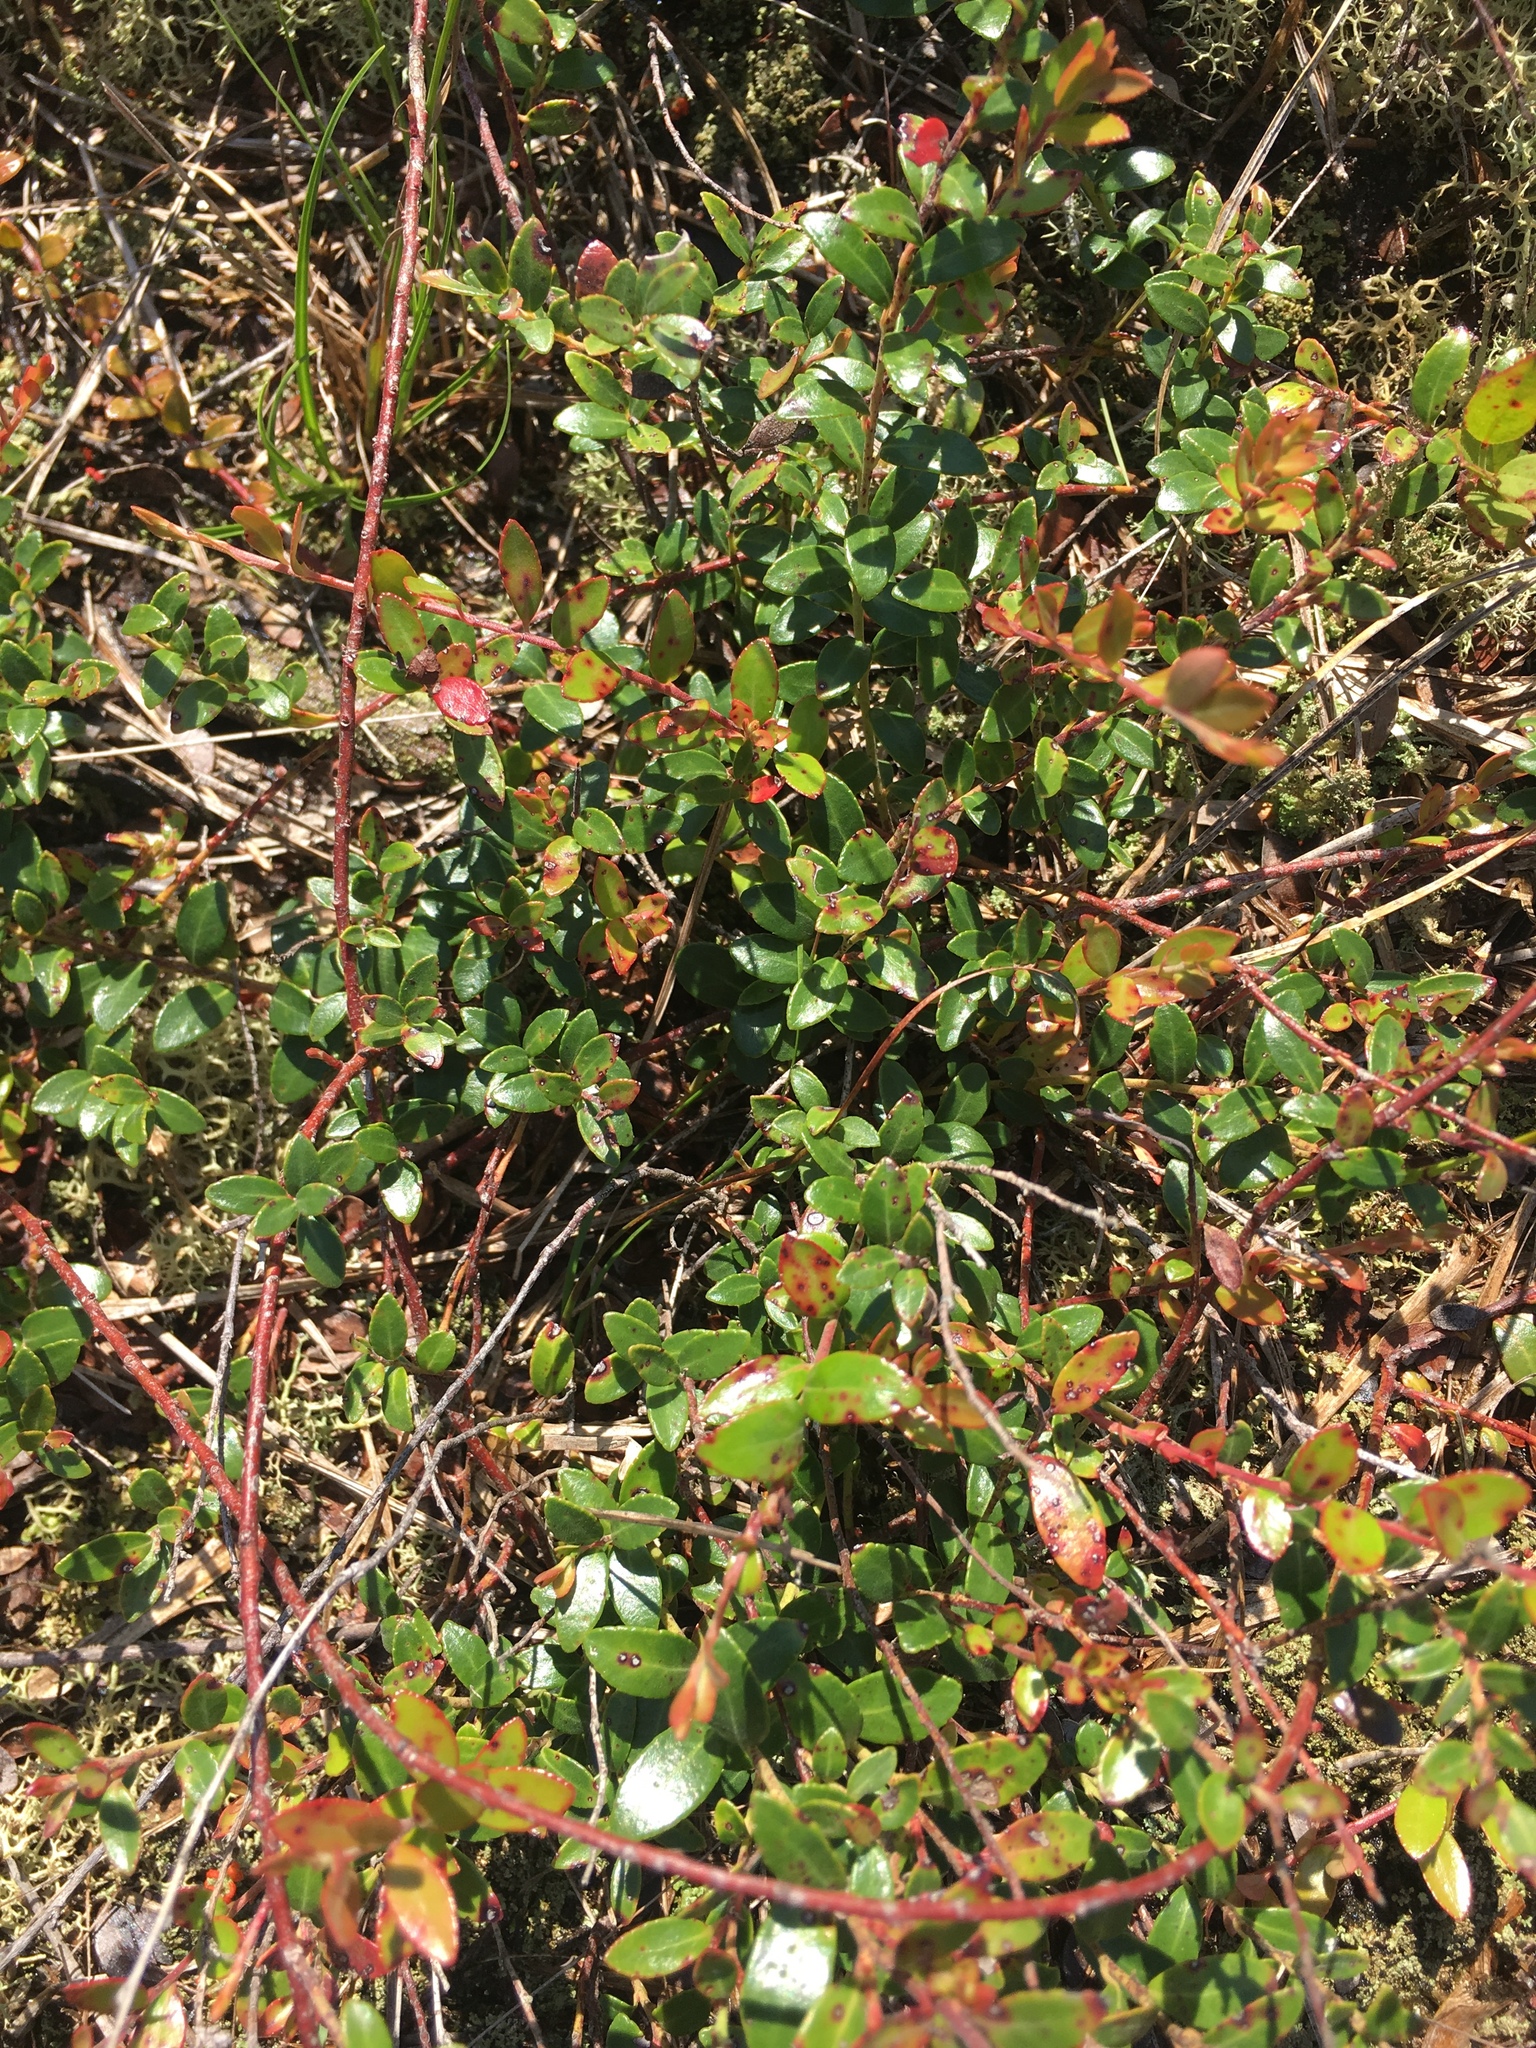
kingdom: Plantae
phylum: Tracheophyta
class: Magnoliopsida
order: Ericales
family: Ericaceae
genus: Vaccinium
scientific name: Vaccinium crassifolium
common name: Creeping blueberry
